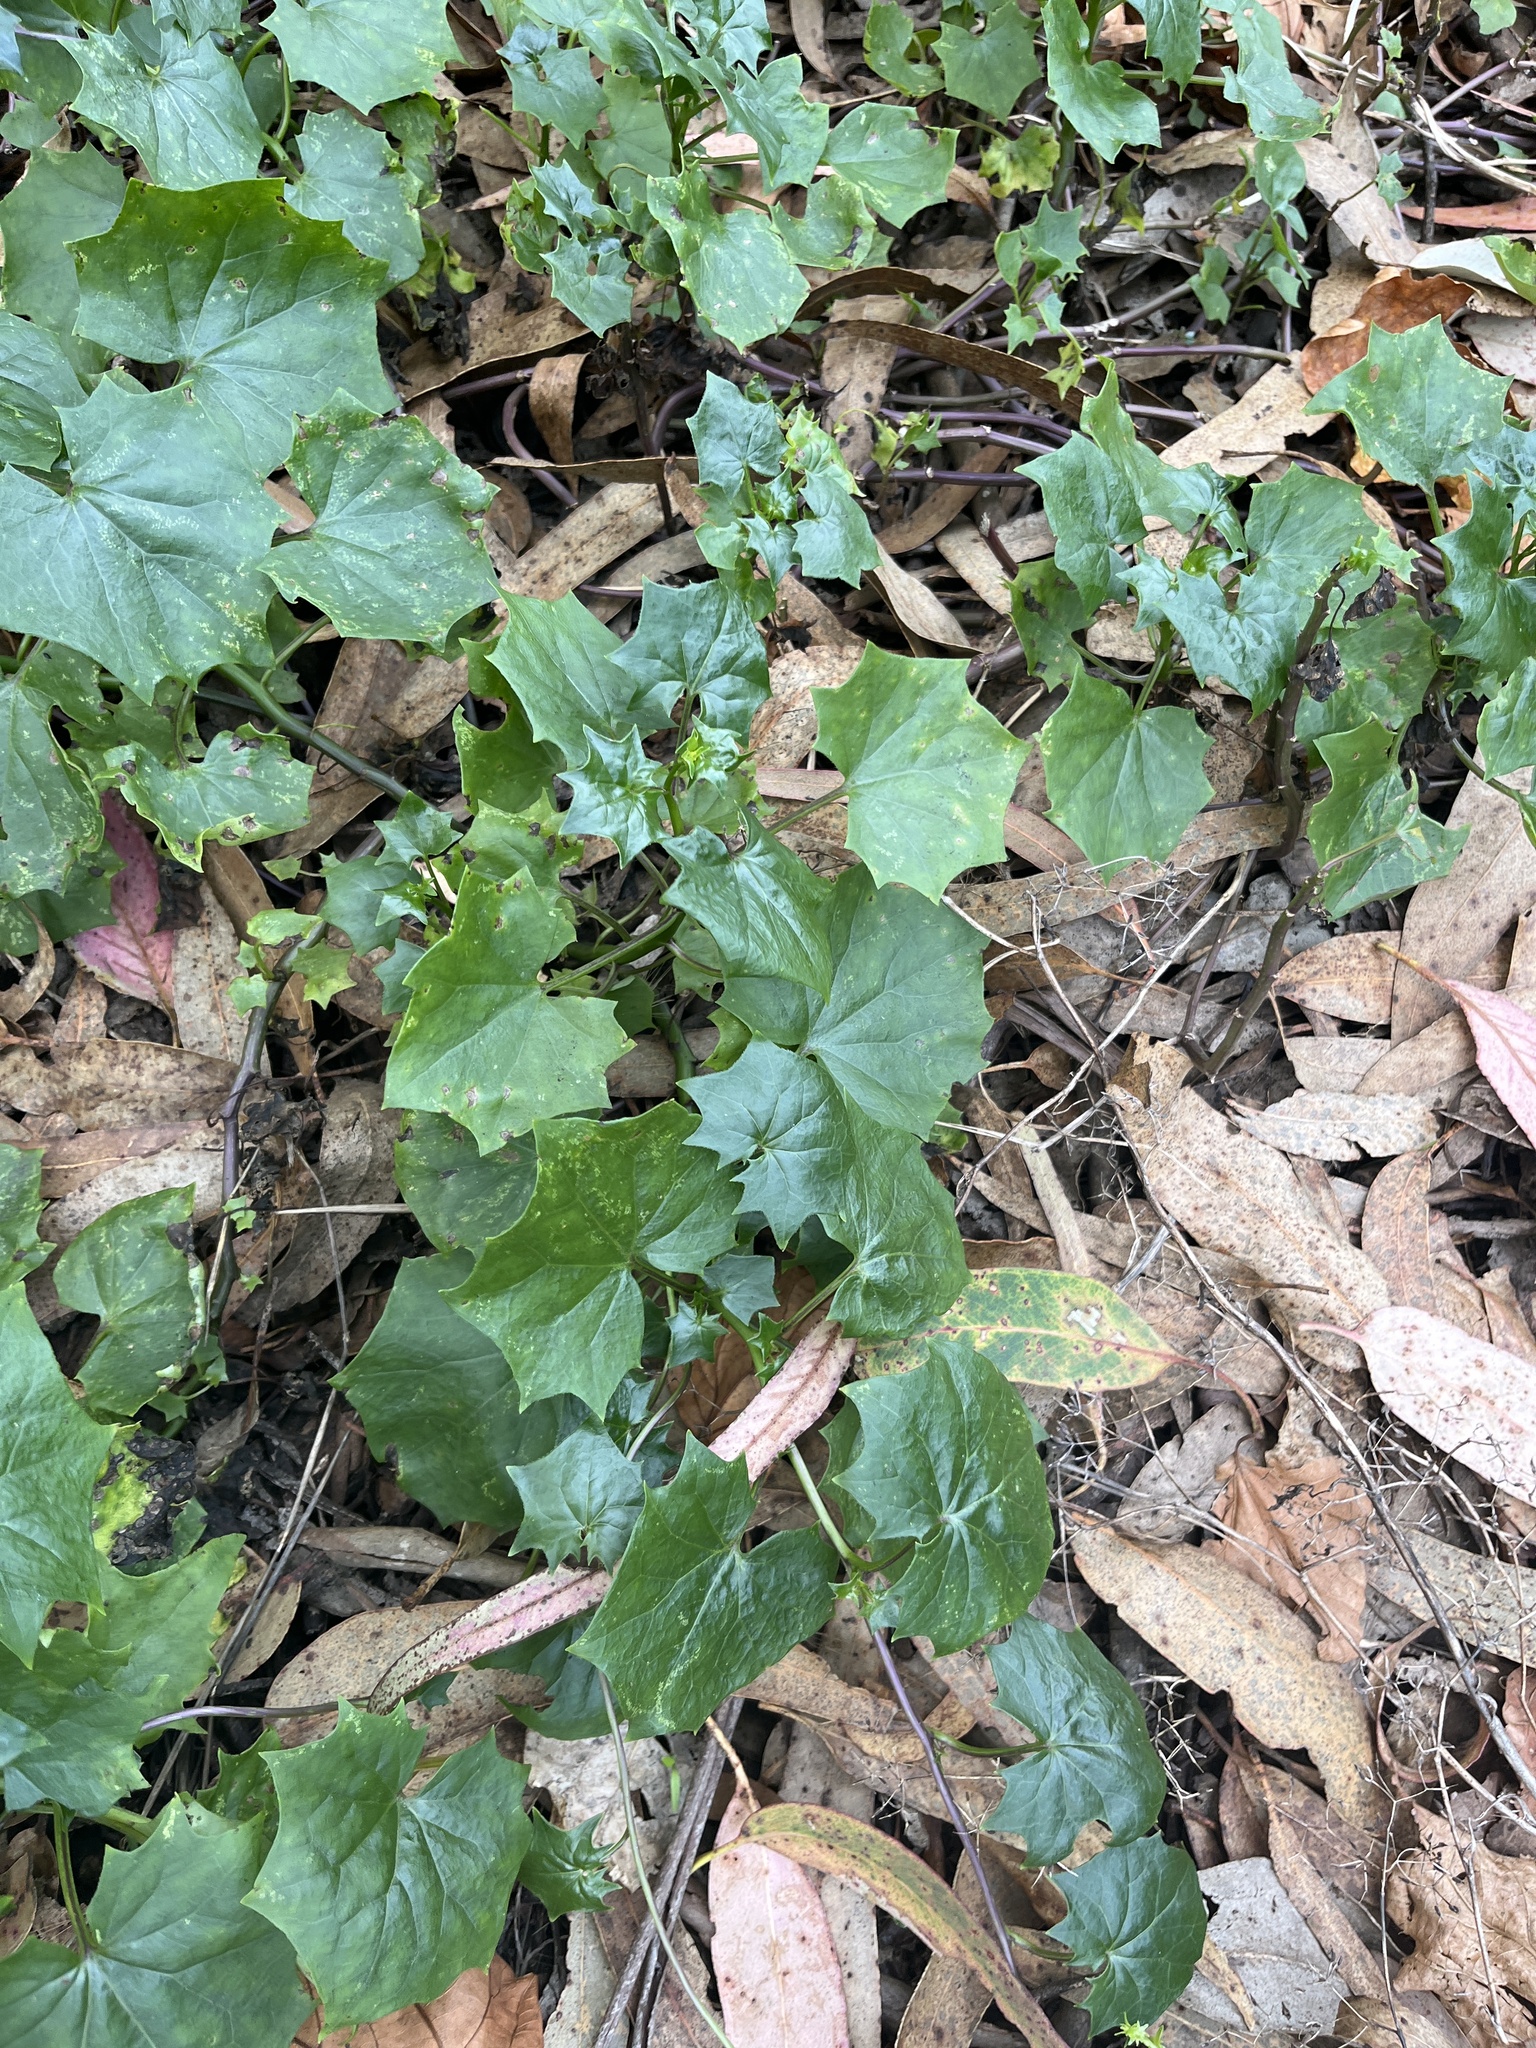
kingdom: Plantae
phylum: Tracheophyta
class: Magnoliopsida
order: Asterales
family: Asteraceae
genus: Delairea
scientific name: Delairea odorata
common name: Cape-ivy
